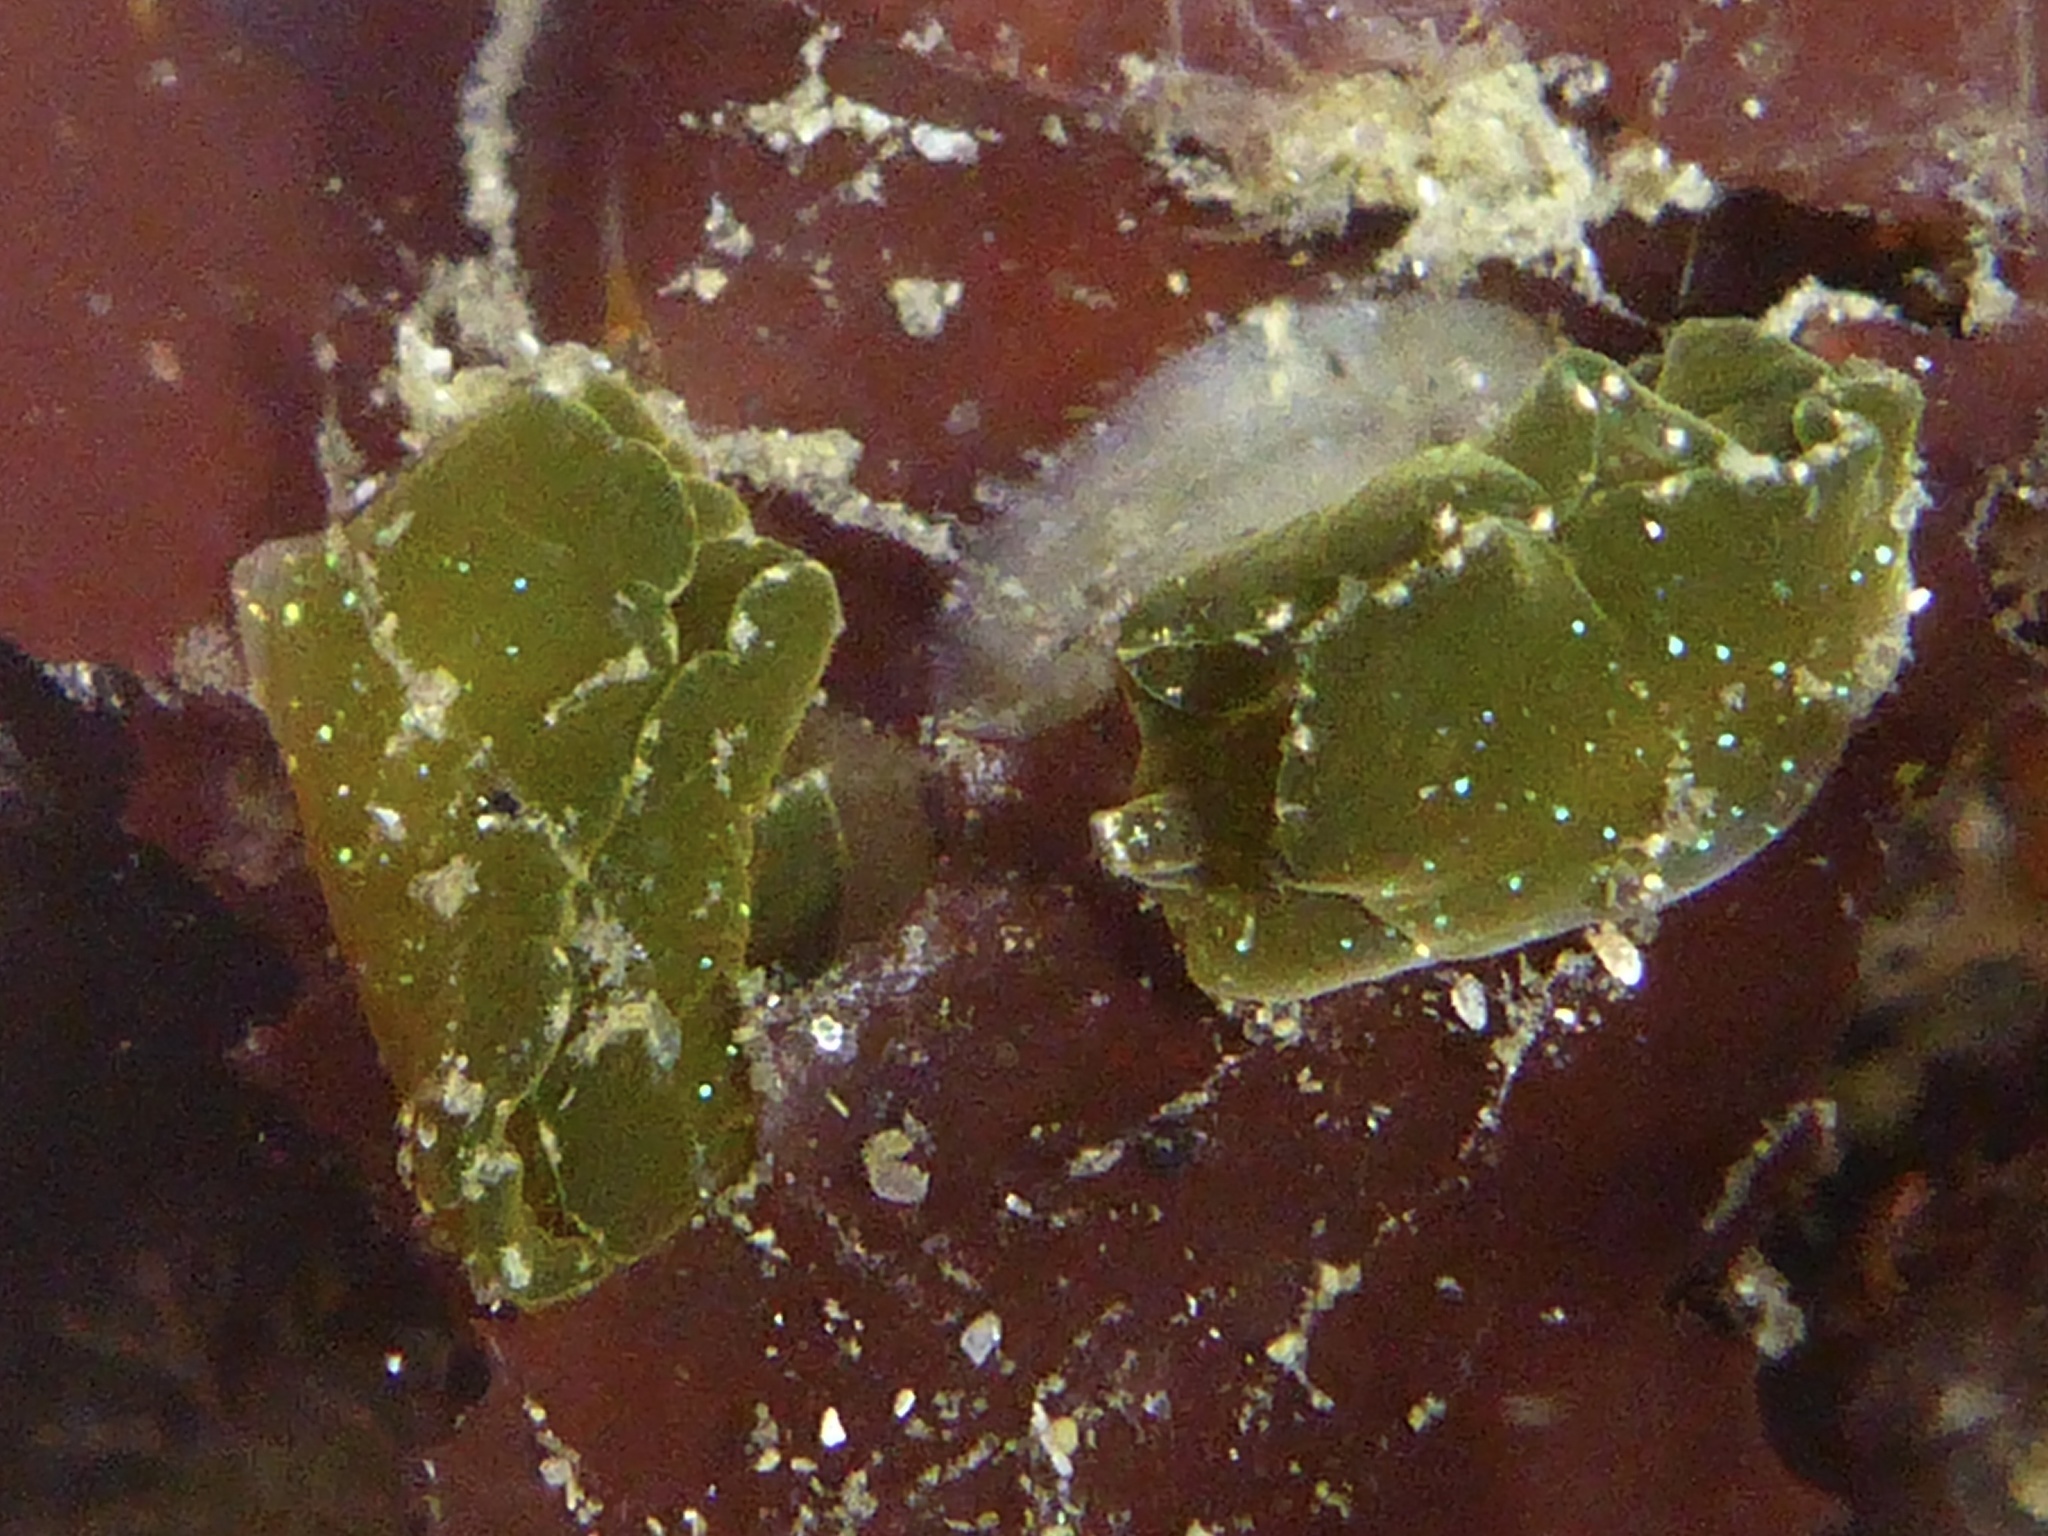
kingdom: Animalia
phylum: Mollusca
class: Gastropoda
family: Plakobranchidae
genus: Elysia
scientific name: Elysia hedgpethi
